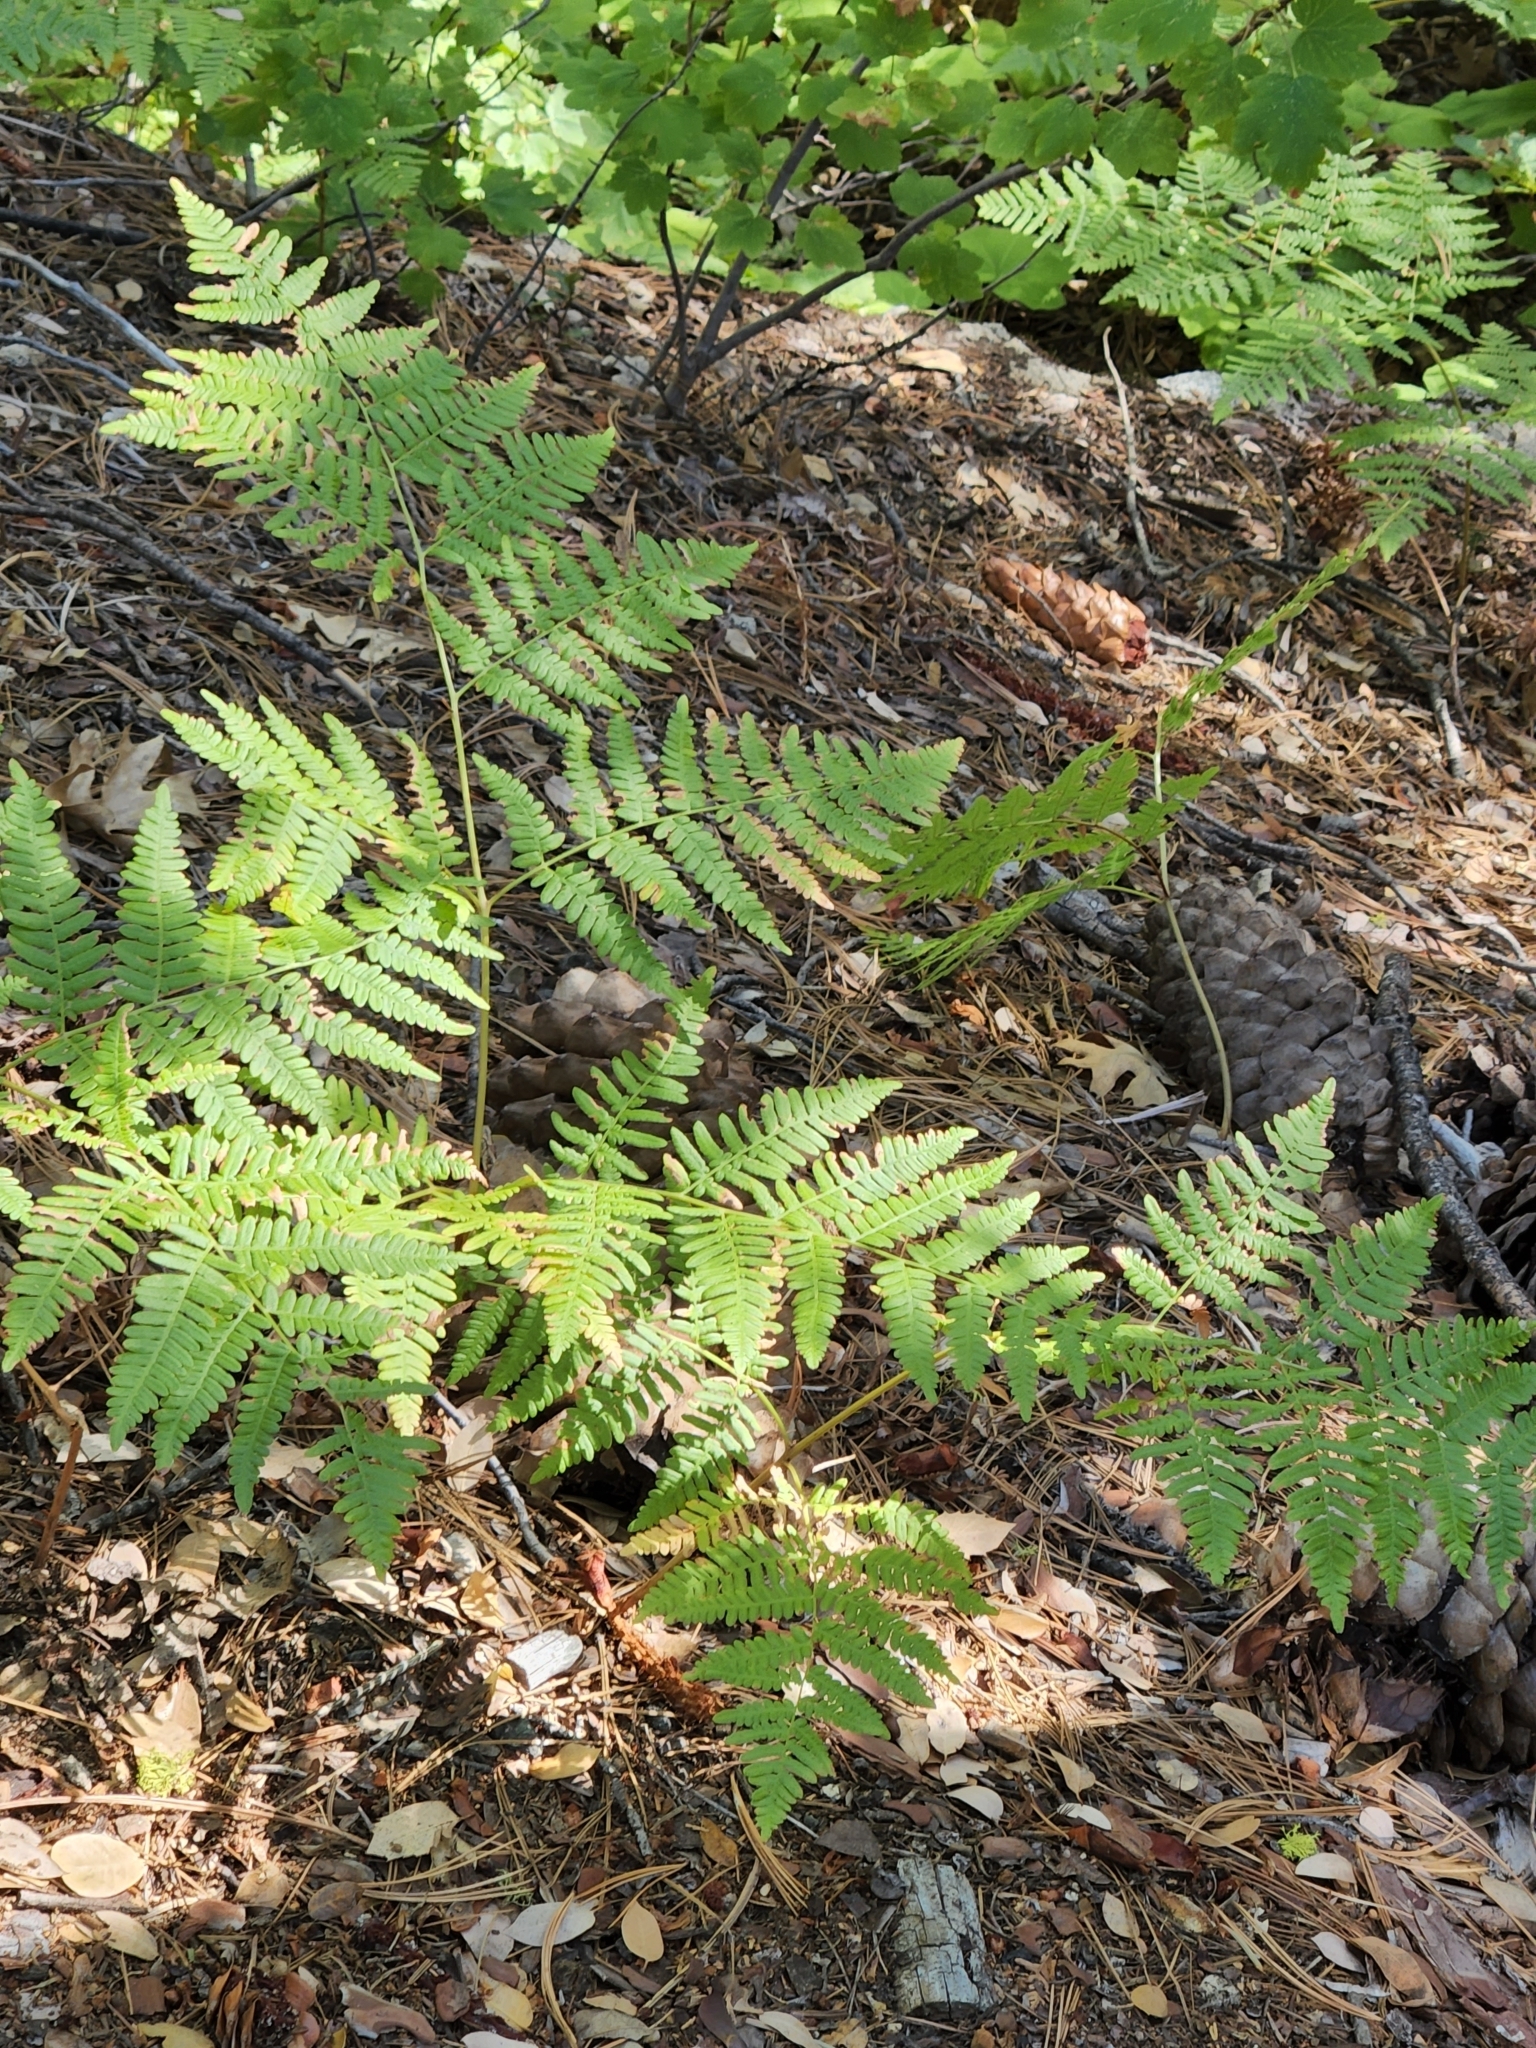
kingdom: Plantae
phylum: Tracheophyta
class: Polypodiopsida
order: Polypodiales
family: Dennstaedtiaceae
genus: Pteridium
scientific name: Pteridium aquilinum
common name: Bracken
